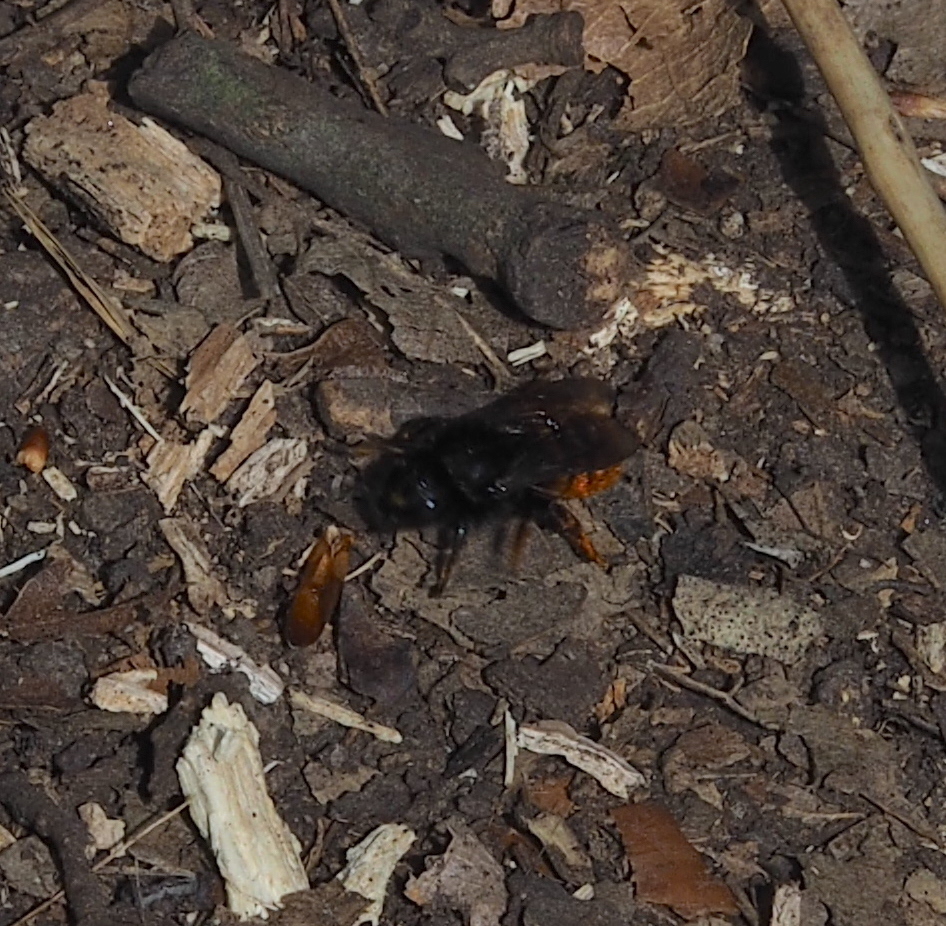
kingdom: Animalia
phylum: Arthropoda
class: Insecta
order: Hymenoptera
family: Megachilidae
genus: Osmia
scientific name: Osmia bicolor
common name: Red-tailed mason bee
